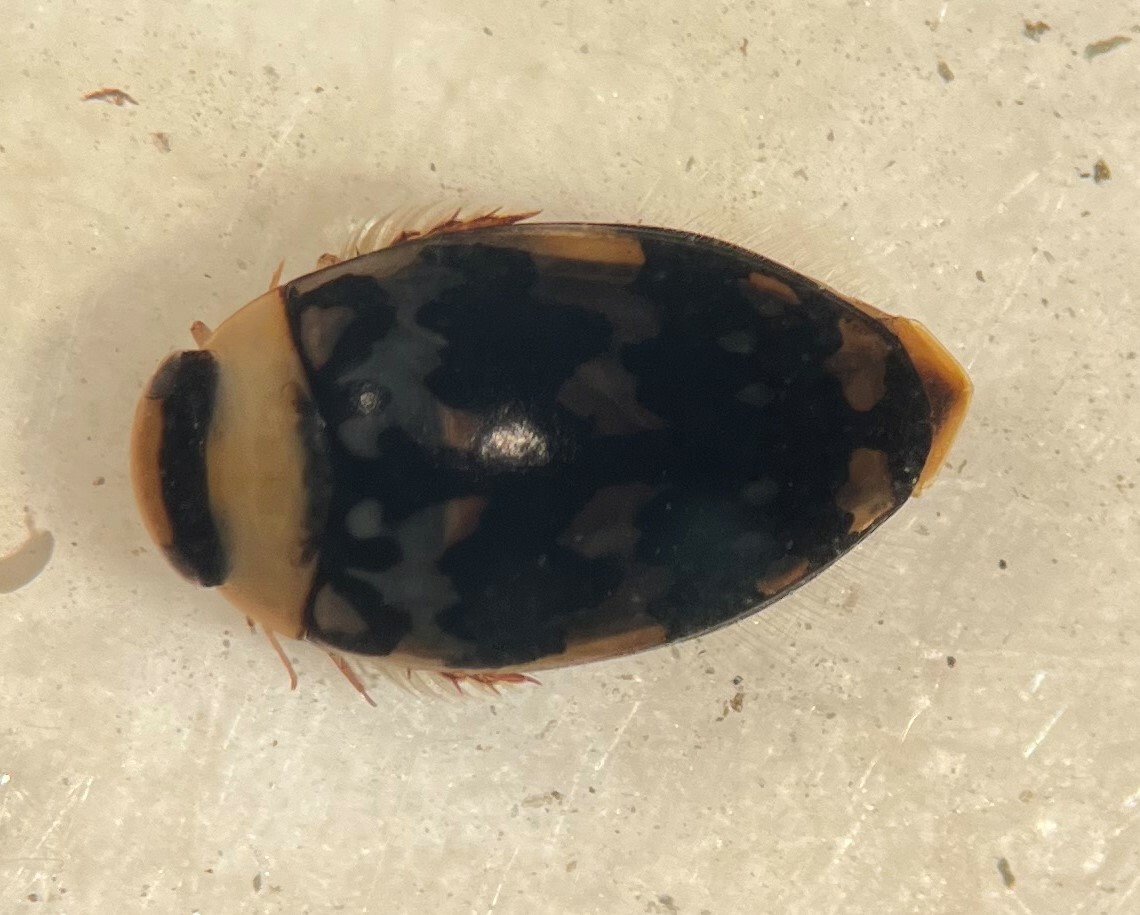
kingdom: Animalia
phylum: Arthropoda
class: Insecta
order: Coleoptera
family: Dytiscidae
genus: Laccophilus
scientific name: Laccophilus pictus
